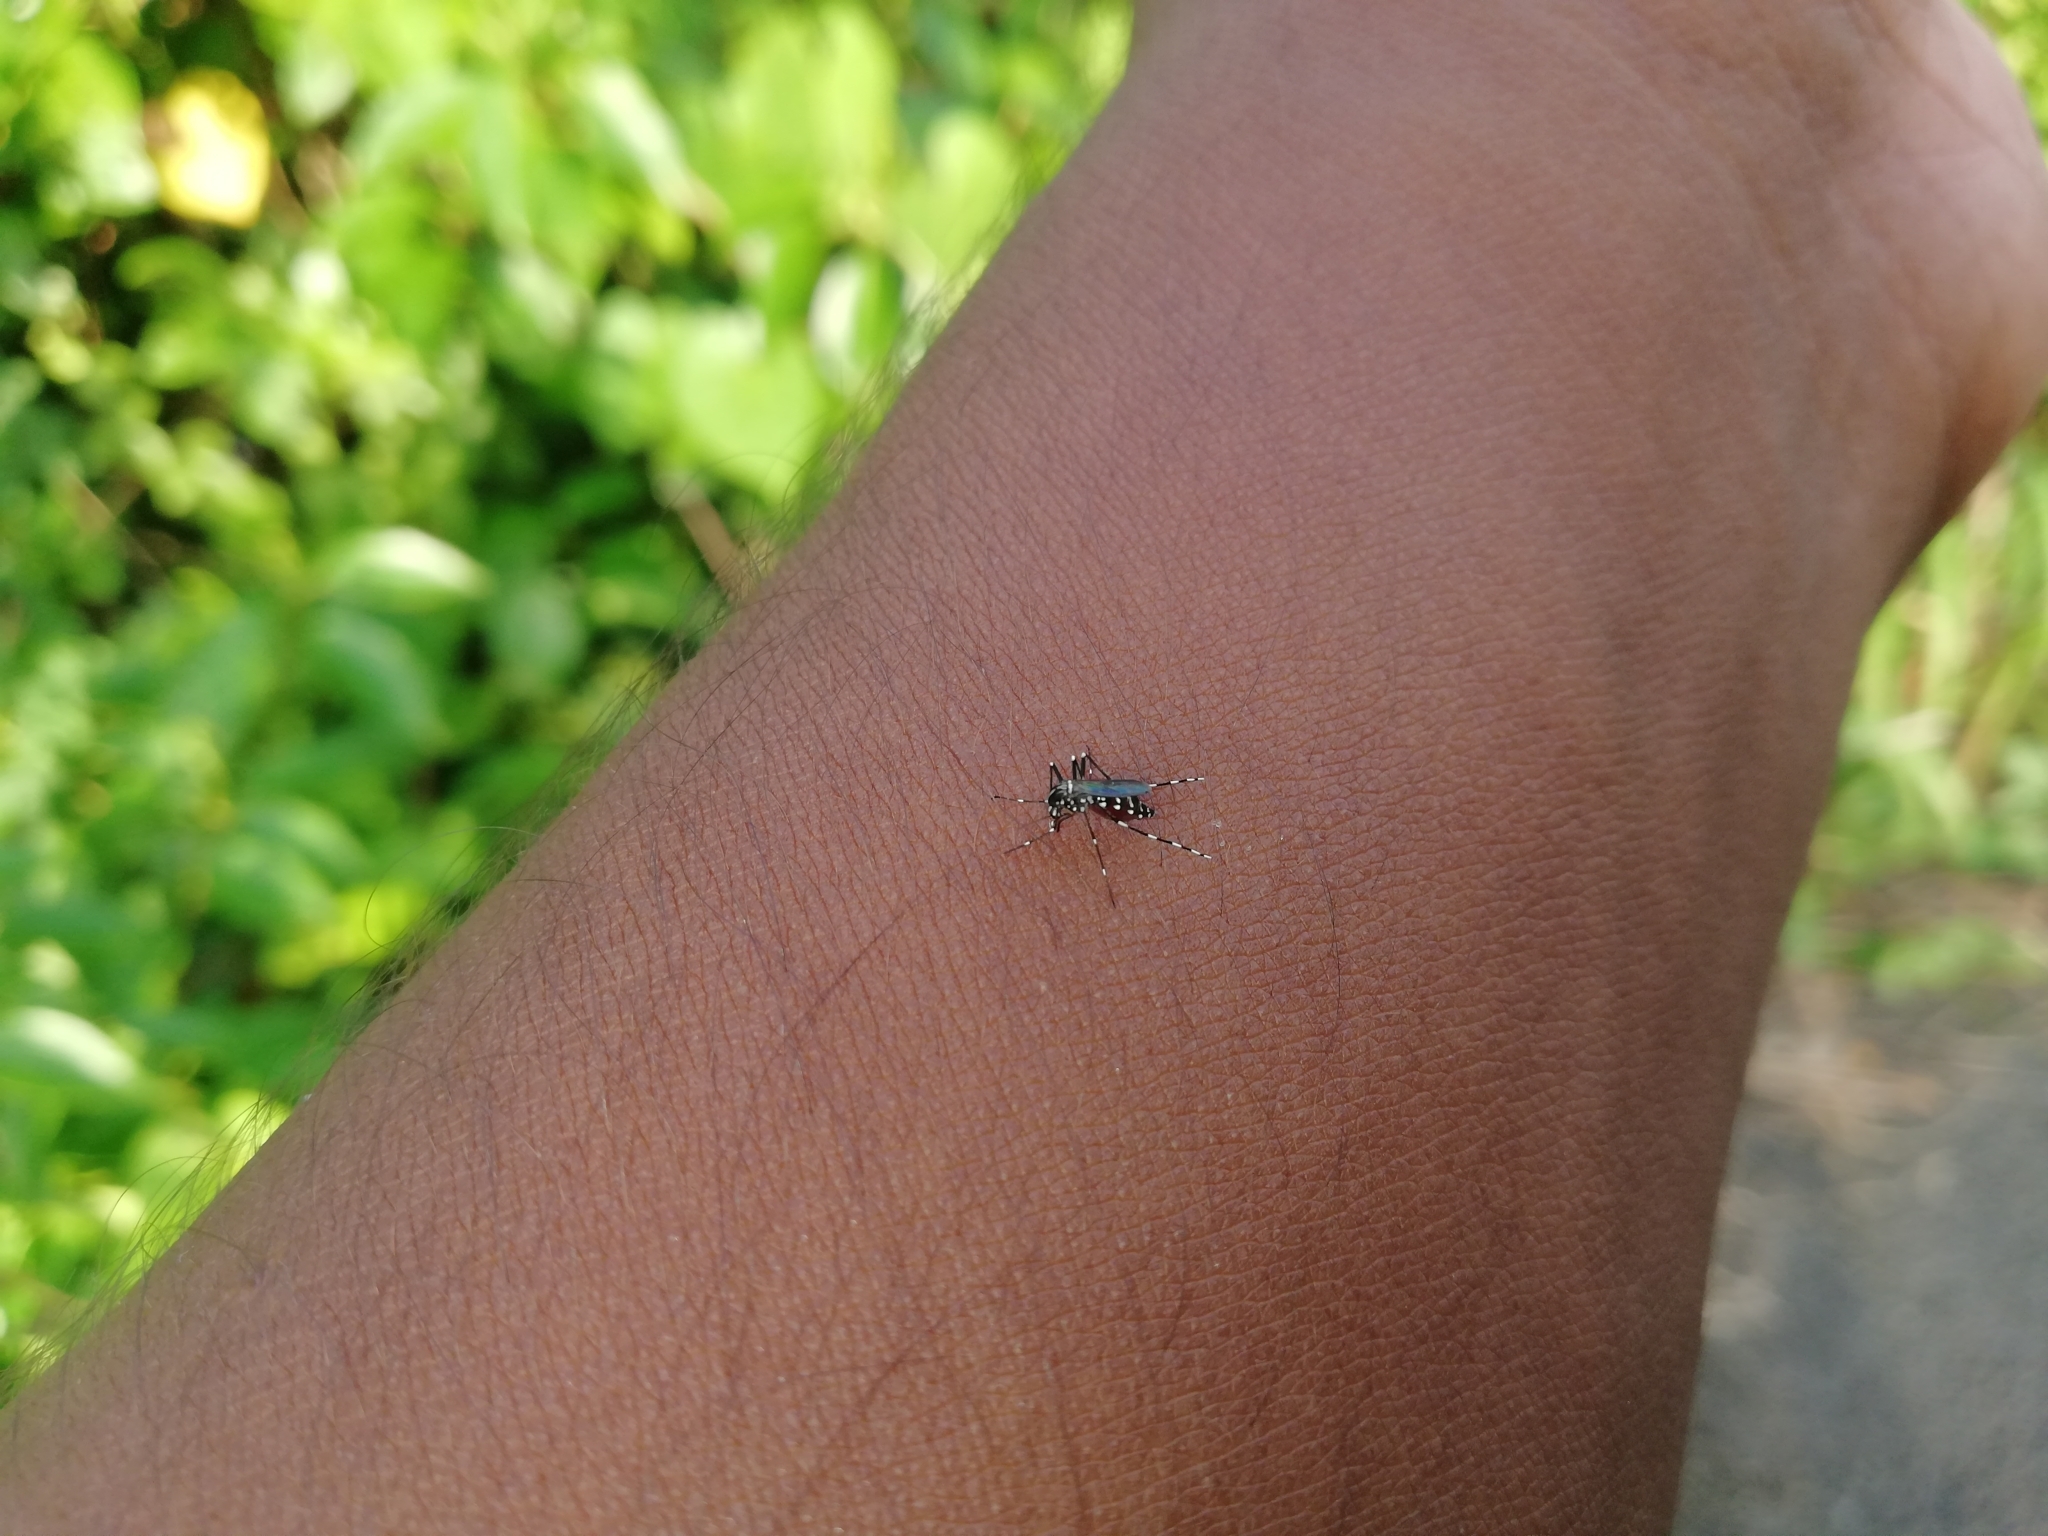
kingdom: Animalia
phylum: Arthropoda
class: Insecta
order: Diptera
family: Culicidae
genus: Aedes
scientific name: Aedes albopictus
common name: Tiger mosquito
